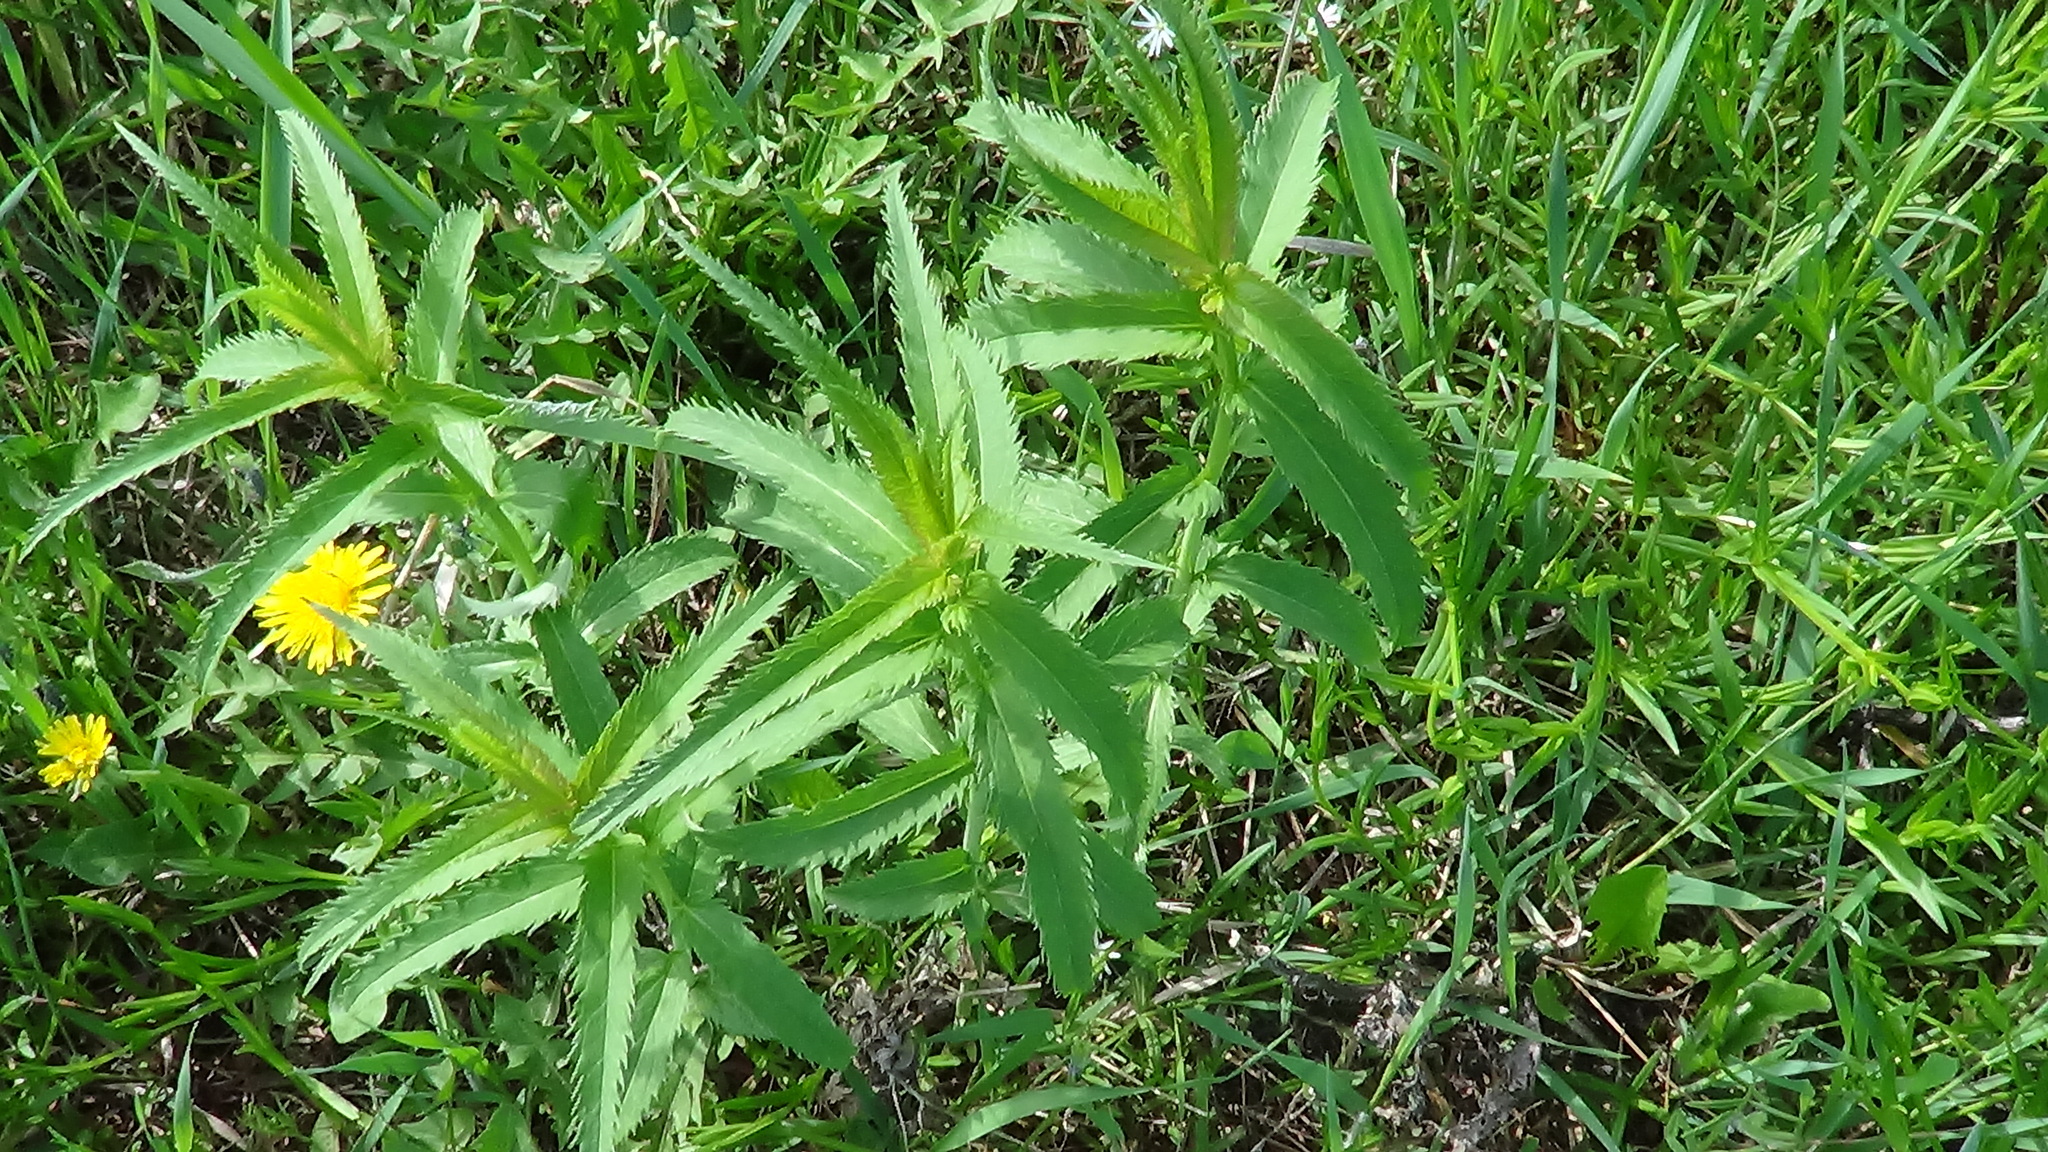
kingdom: Plantae
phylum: Tracheophyta
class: Magnoliopsida
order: Lamiales
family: Plantaginaceae
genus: Veronica
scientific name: Veronica longifolia
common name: Garden speedwell
